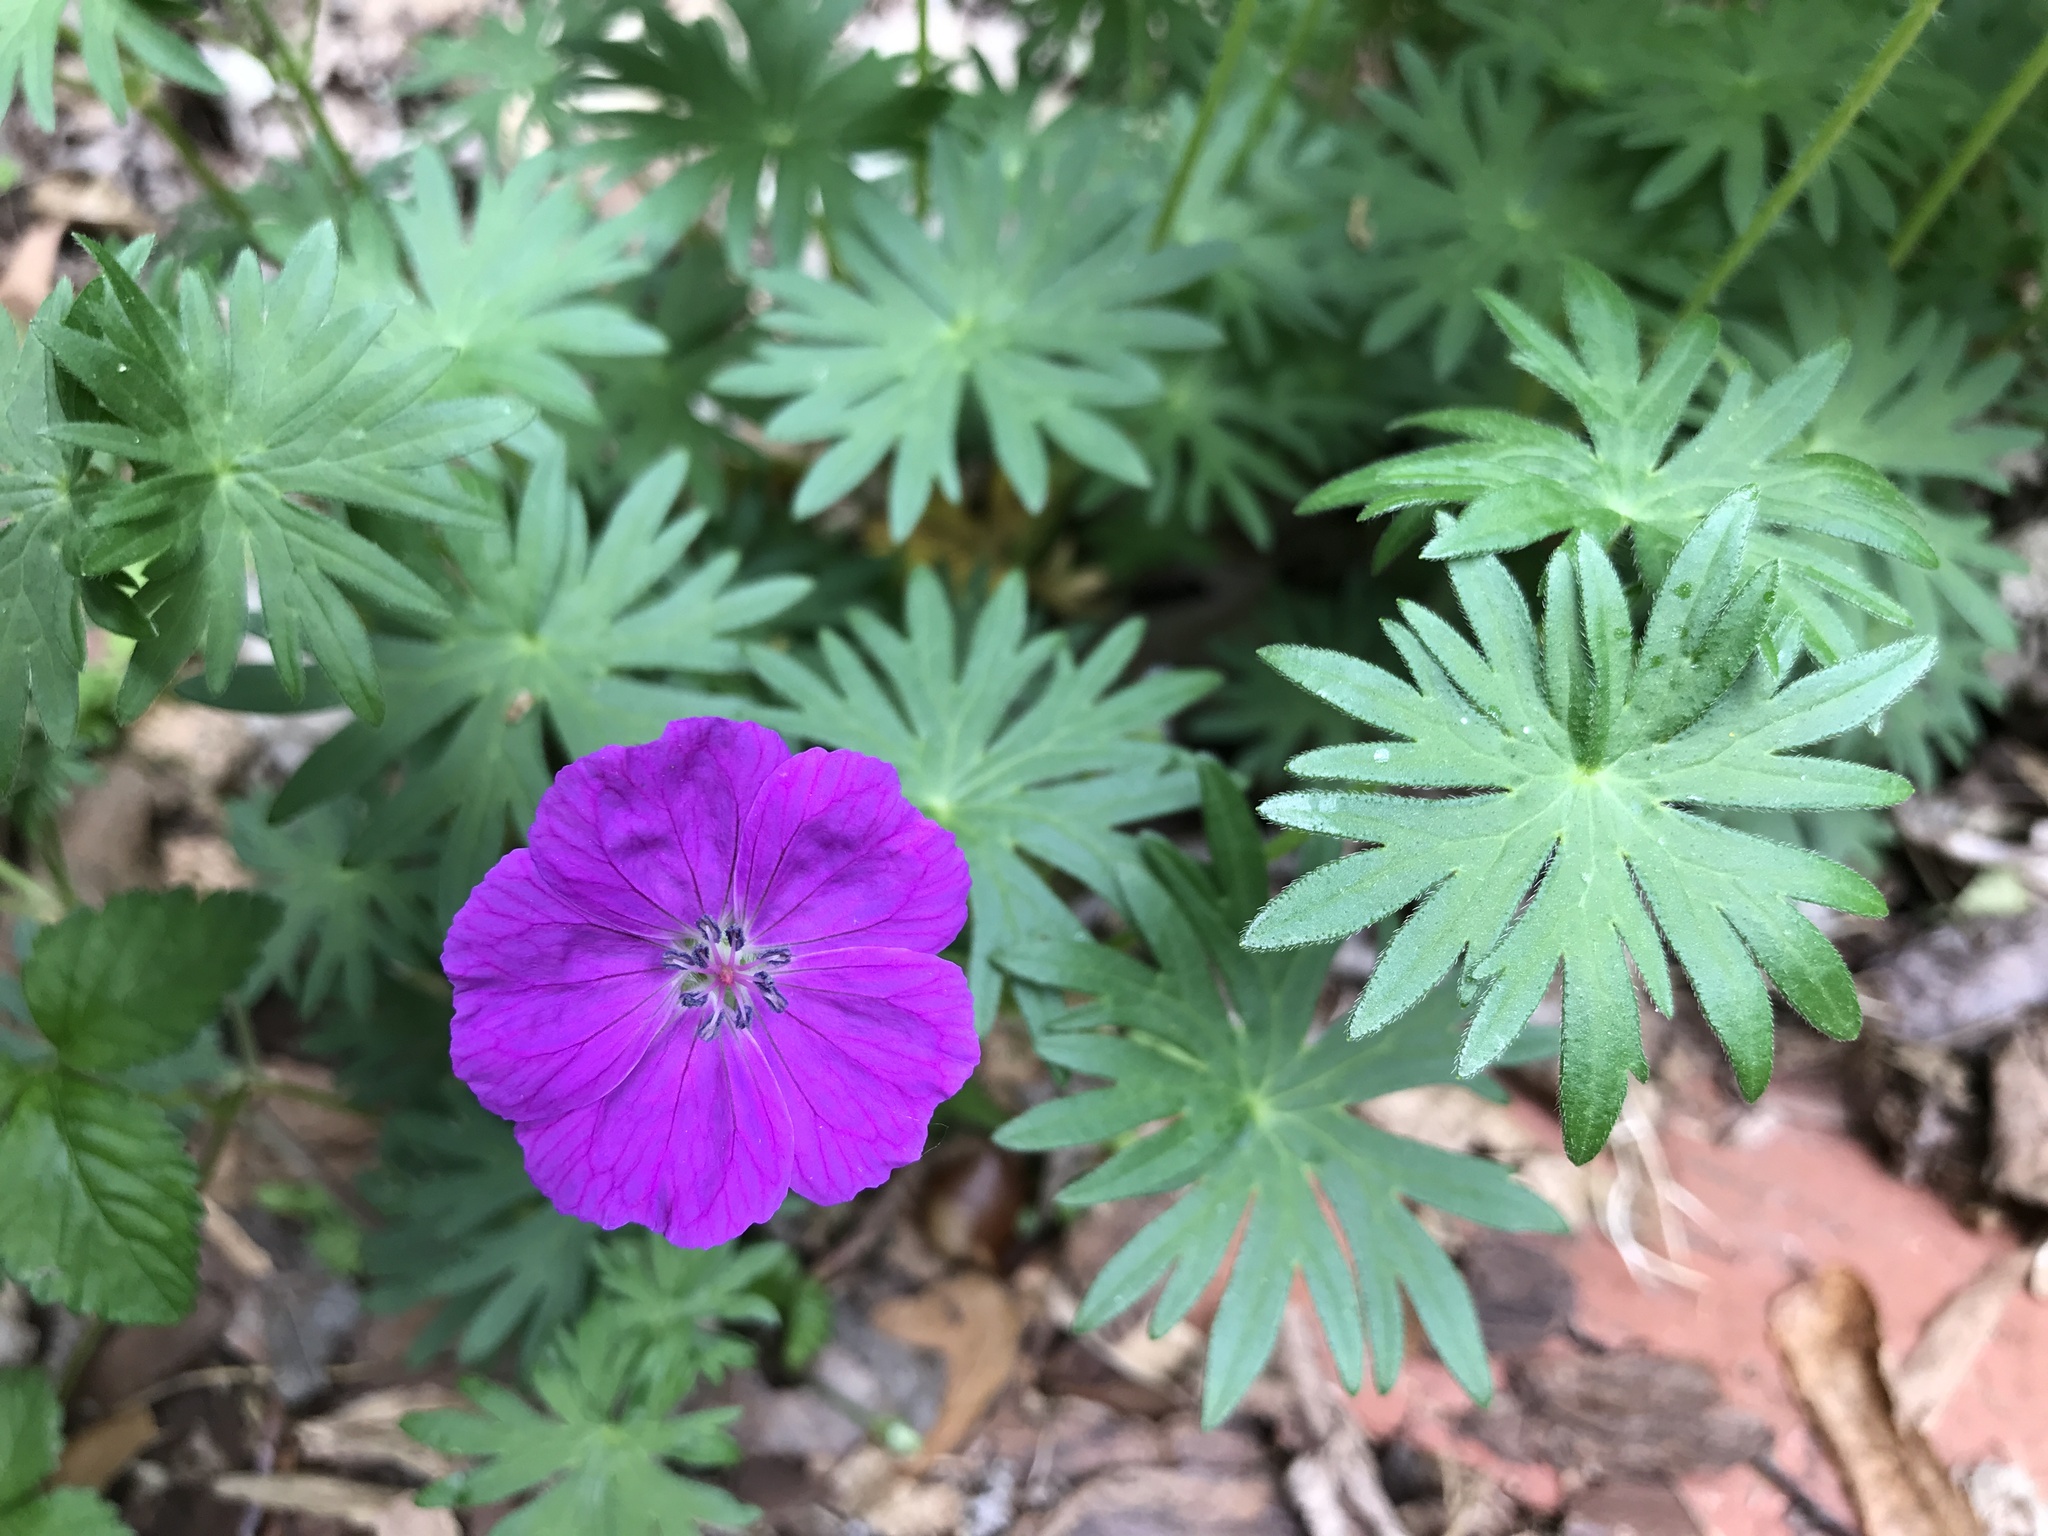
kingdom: Plantae
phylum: Tracheophyta
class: Magnoliopsida
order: Geraniales
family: Geraniaceae
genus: Geranium
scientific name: Geranium sanguineum
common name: Bloody crane's-bill
